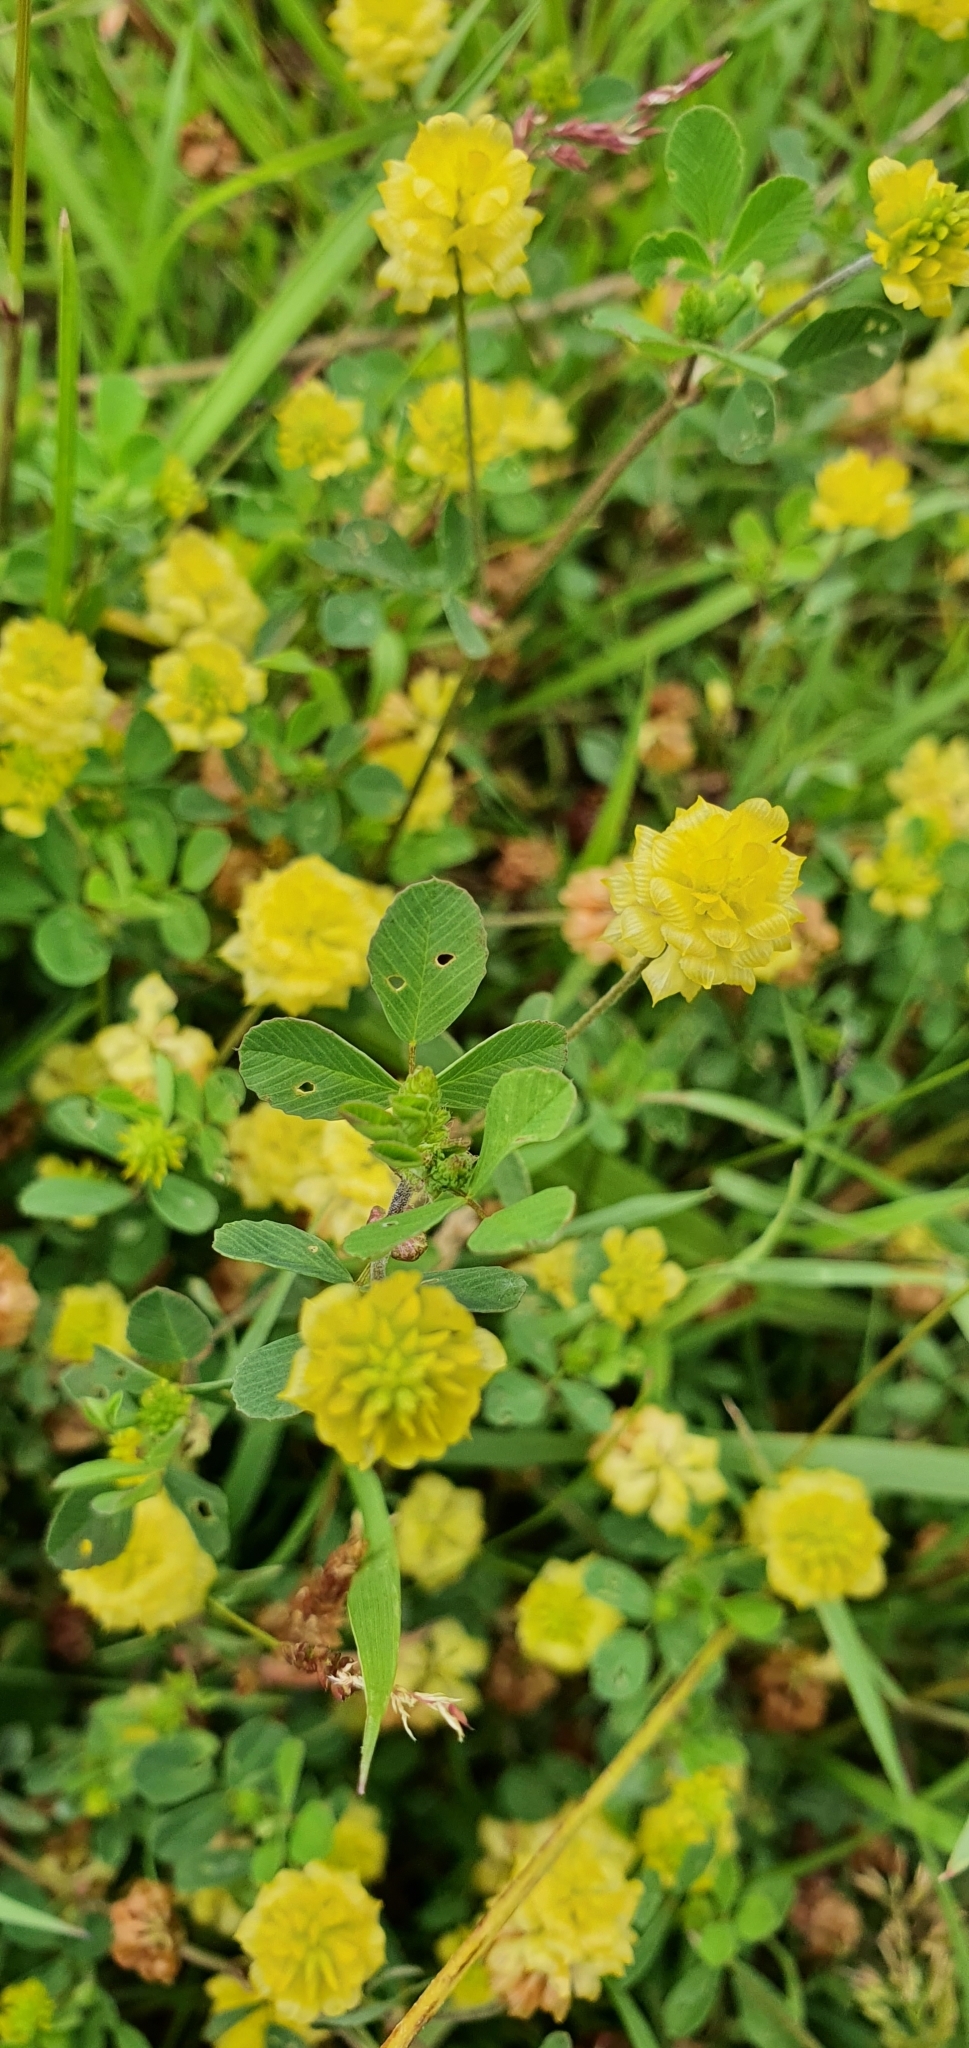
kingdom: Plantae
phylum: Tracheophyta
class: Magnoliopsida
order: Fabales
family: Fabaceae
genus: Trifolium
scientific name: Trifolium campestre
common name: Field clover
